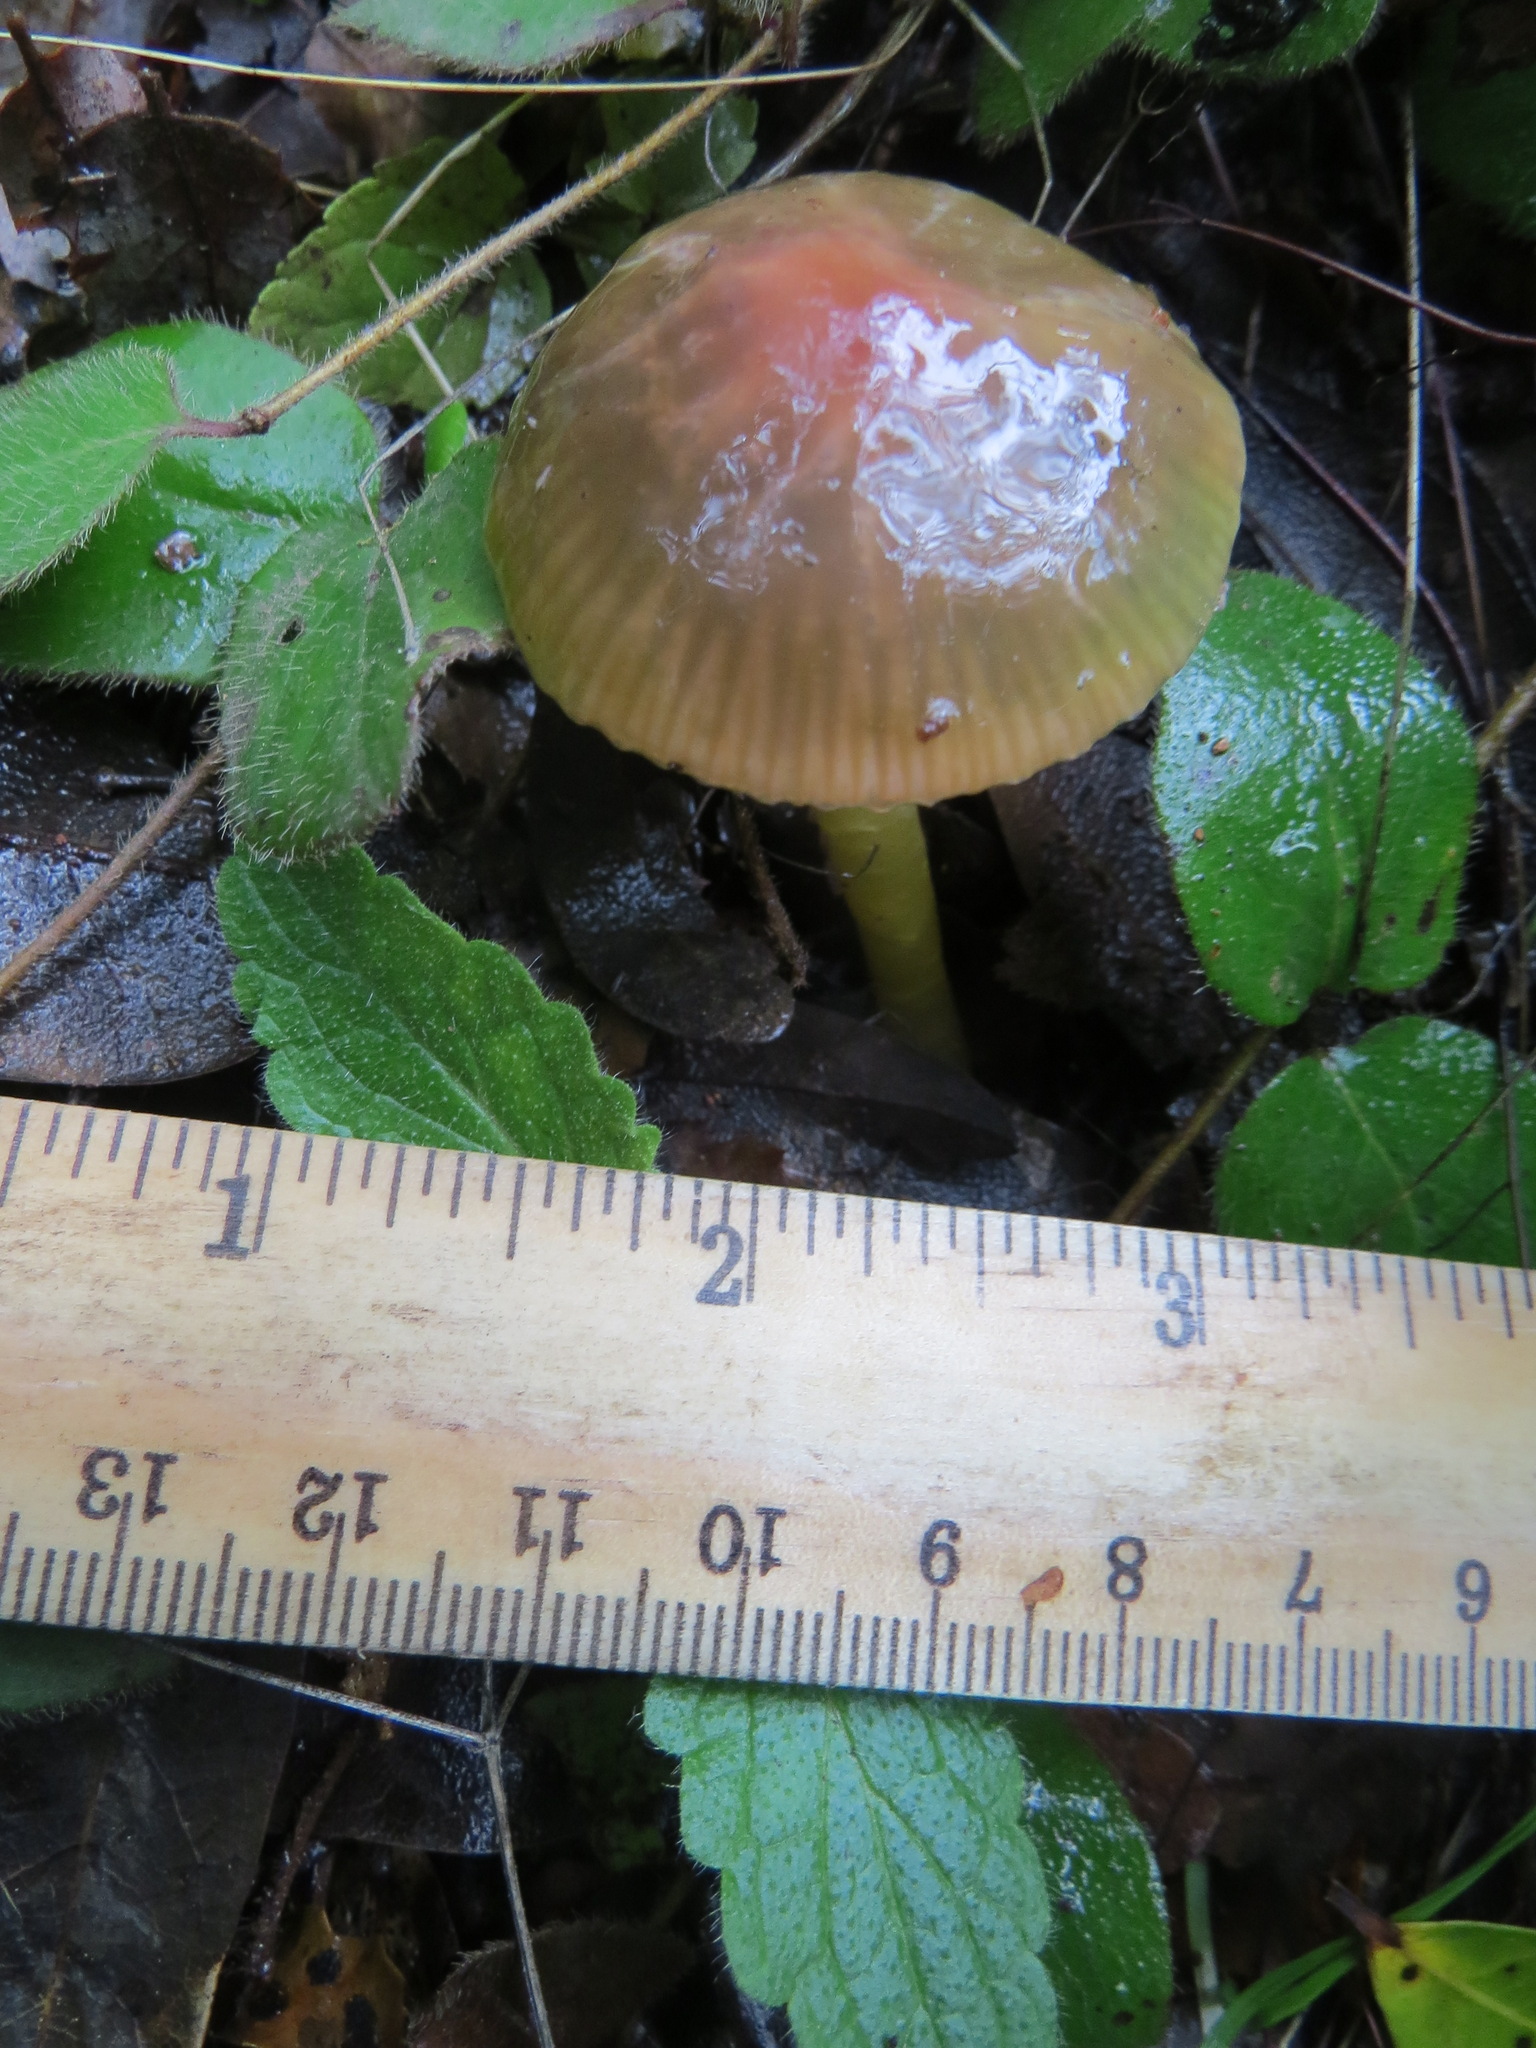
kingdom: Fungi
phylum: Basidiomycota
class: Agaricomycetes
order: Agaricales
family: Hygrophoraceae
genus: Gliophorus
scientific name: Gliophorus psittacinus
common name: Parrot wax-cap
